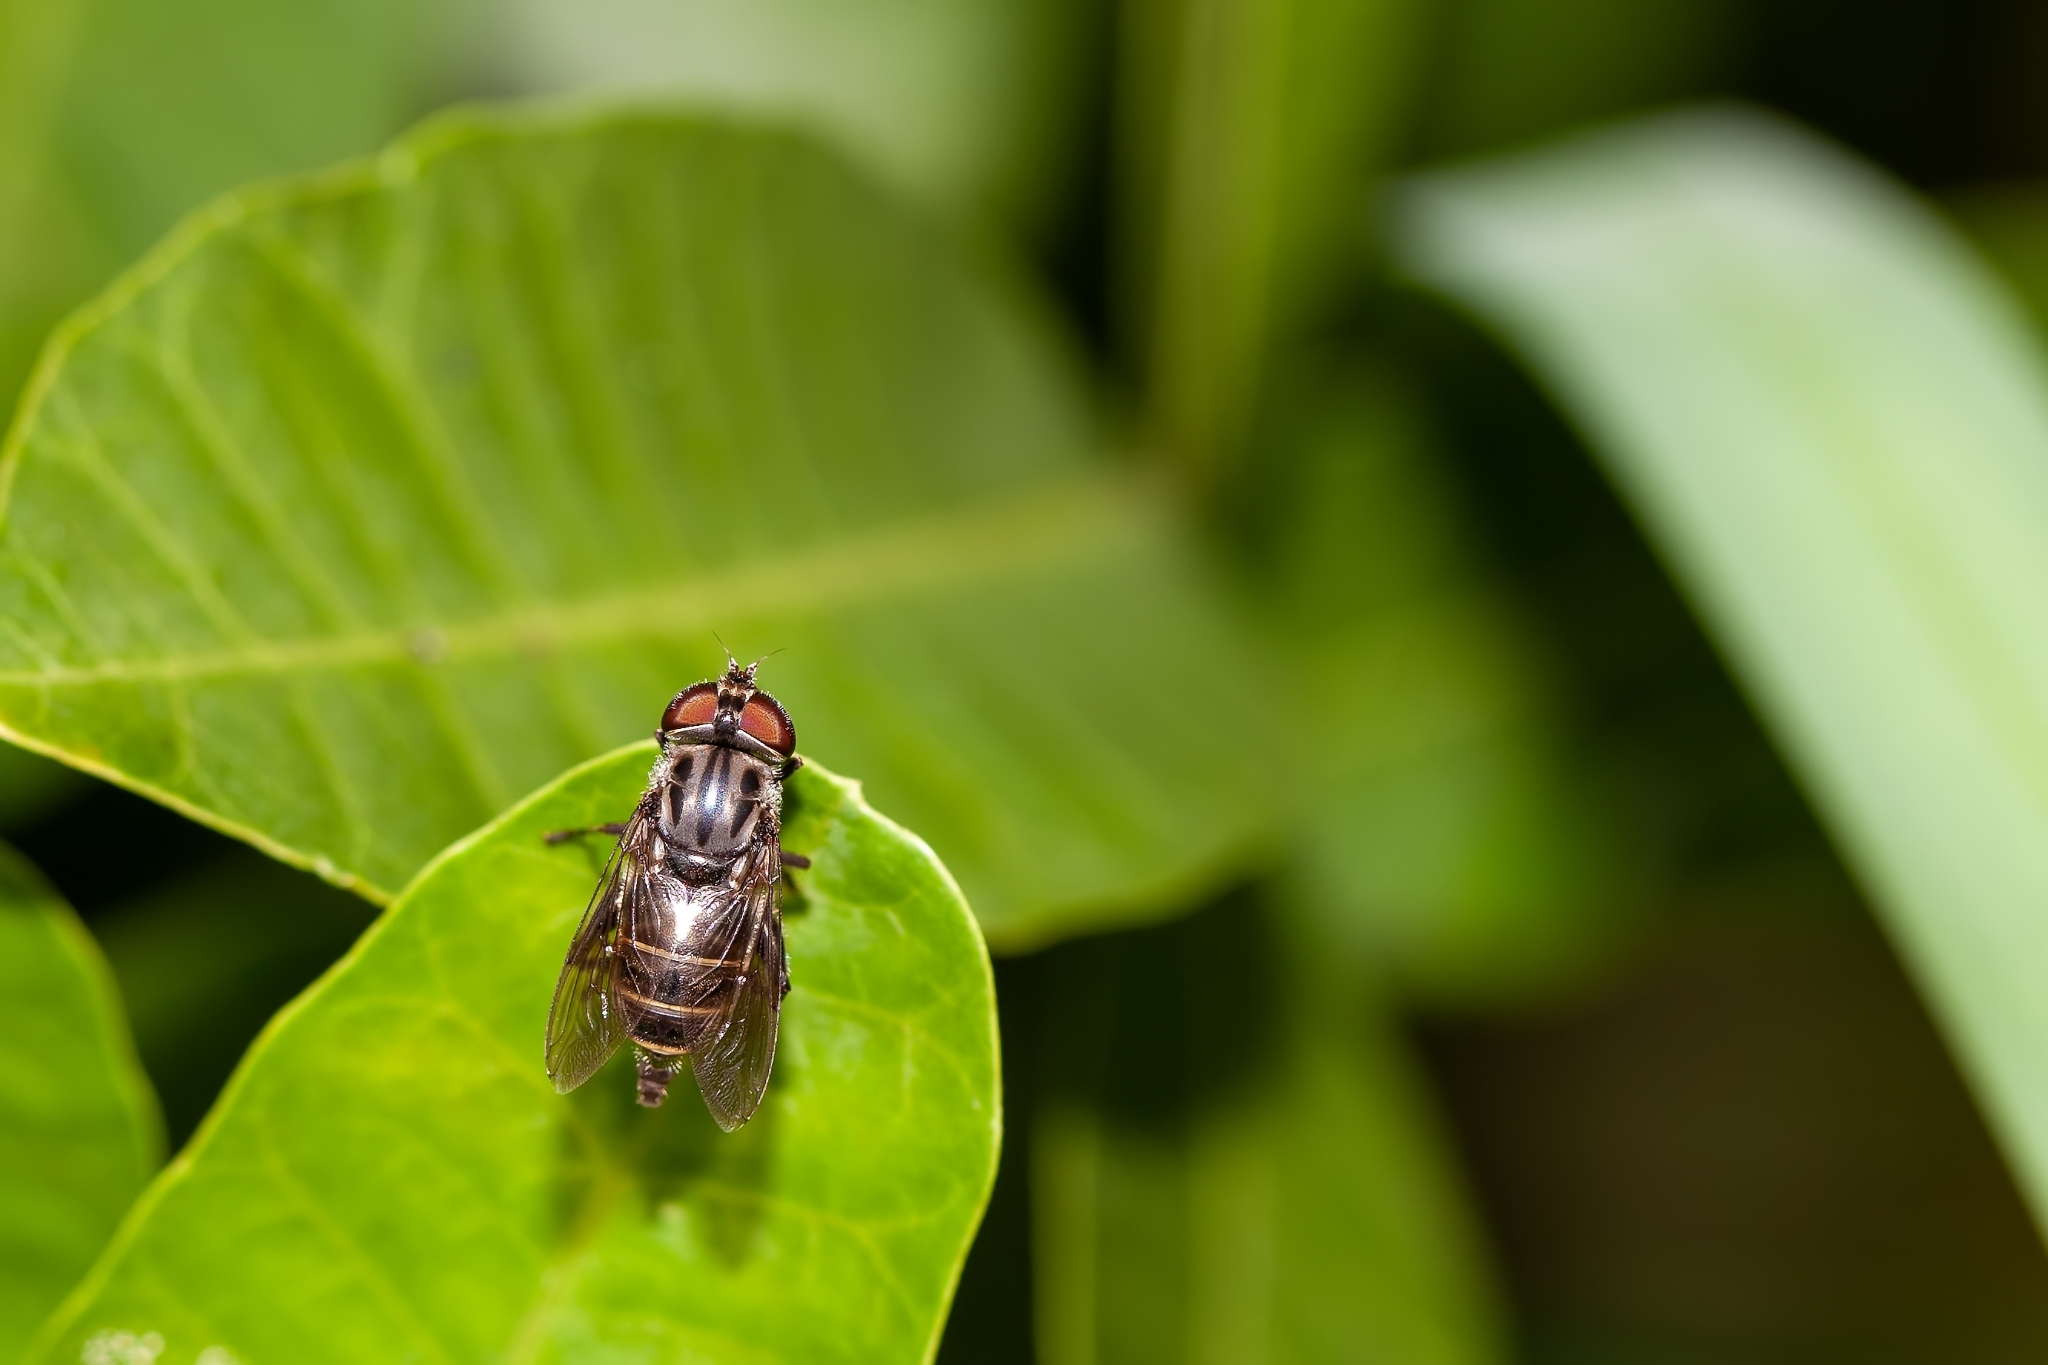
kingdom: Animalia
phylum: Arthropoda
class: Insecta
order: Diptera
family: Syrphidae
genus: Palpada
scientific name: Palpada furcata
